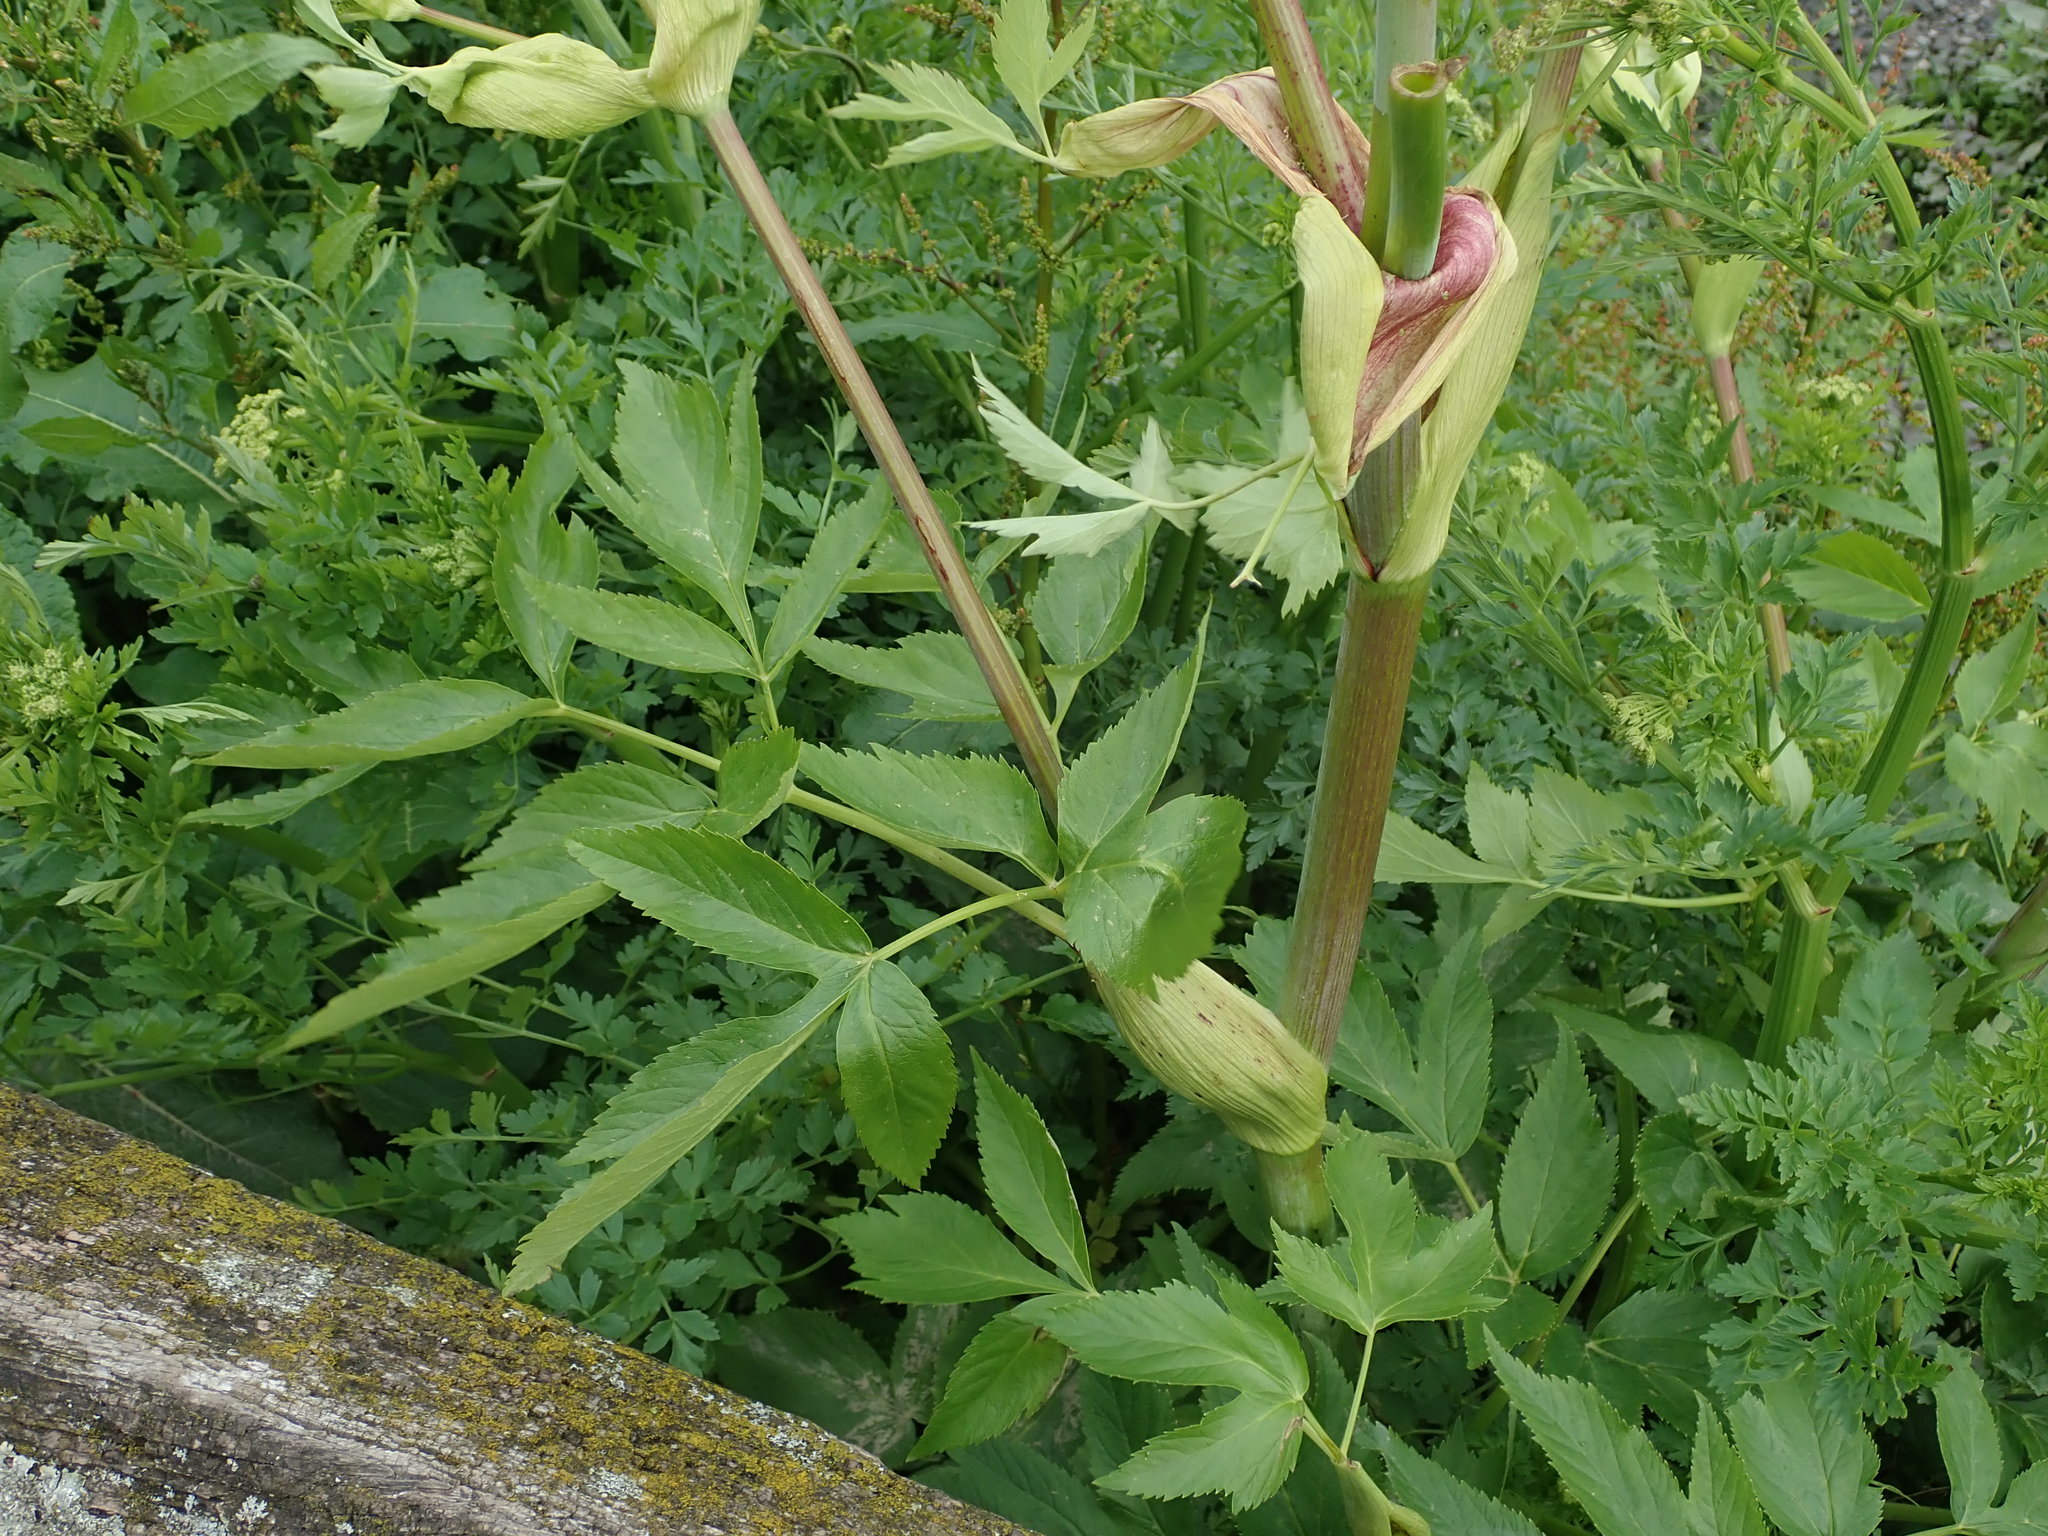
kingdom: Plantae
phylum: Tracheophyta
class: Magnoliopsida
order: Apiales
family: Apiaceae
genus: Angelica
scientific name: Angelica archangelica
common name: Garden angelica
